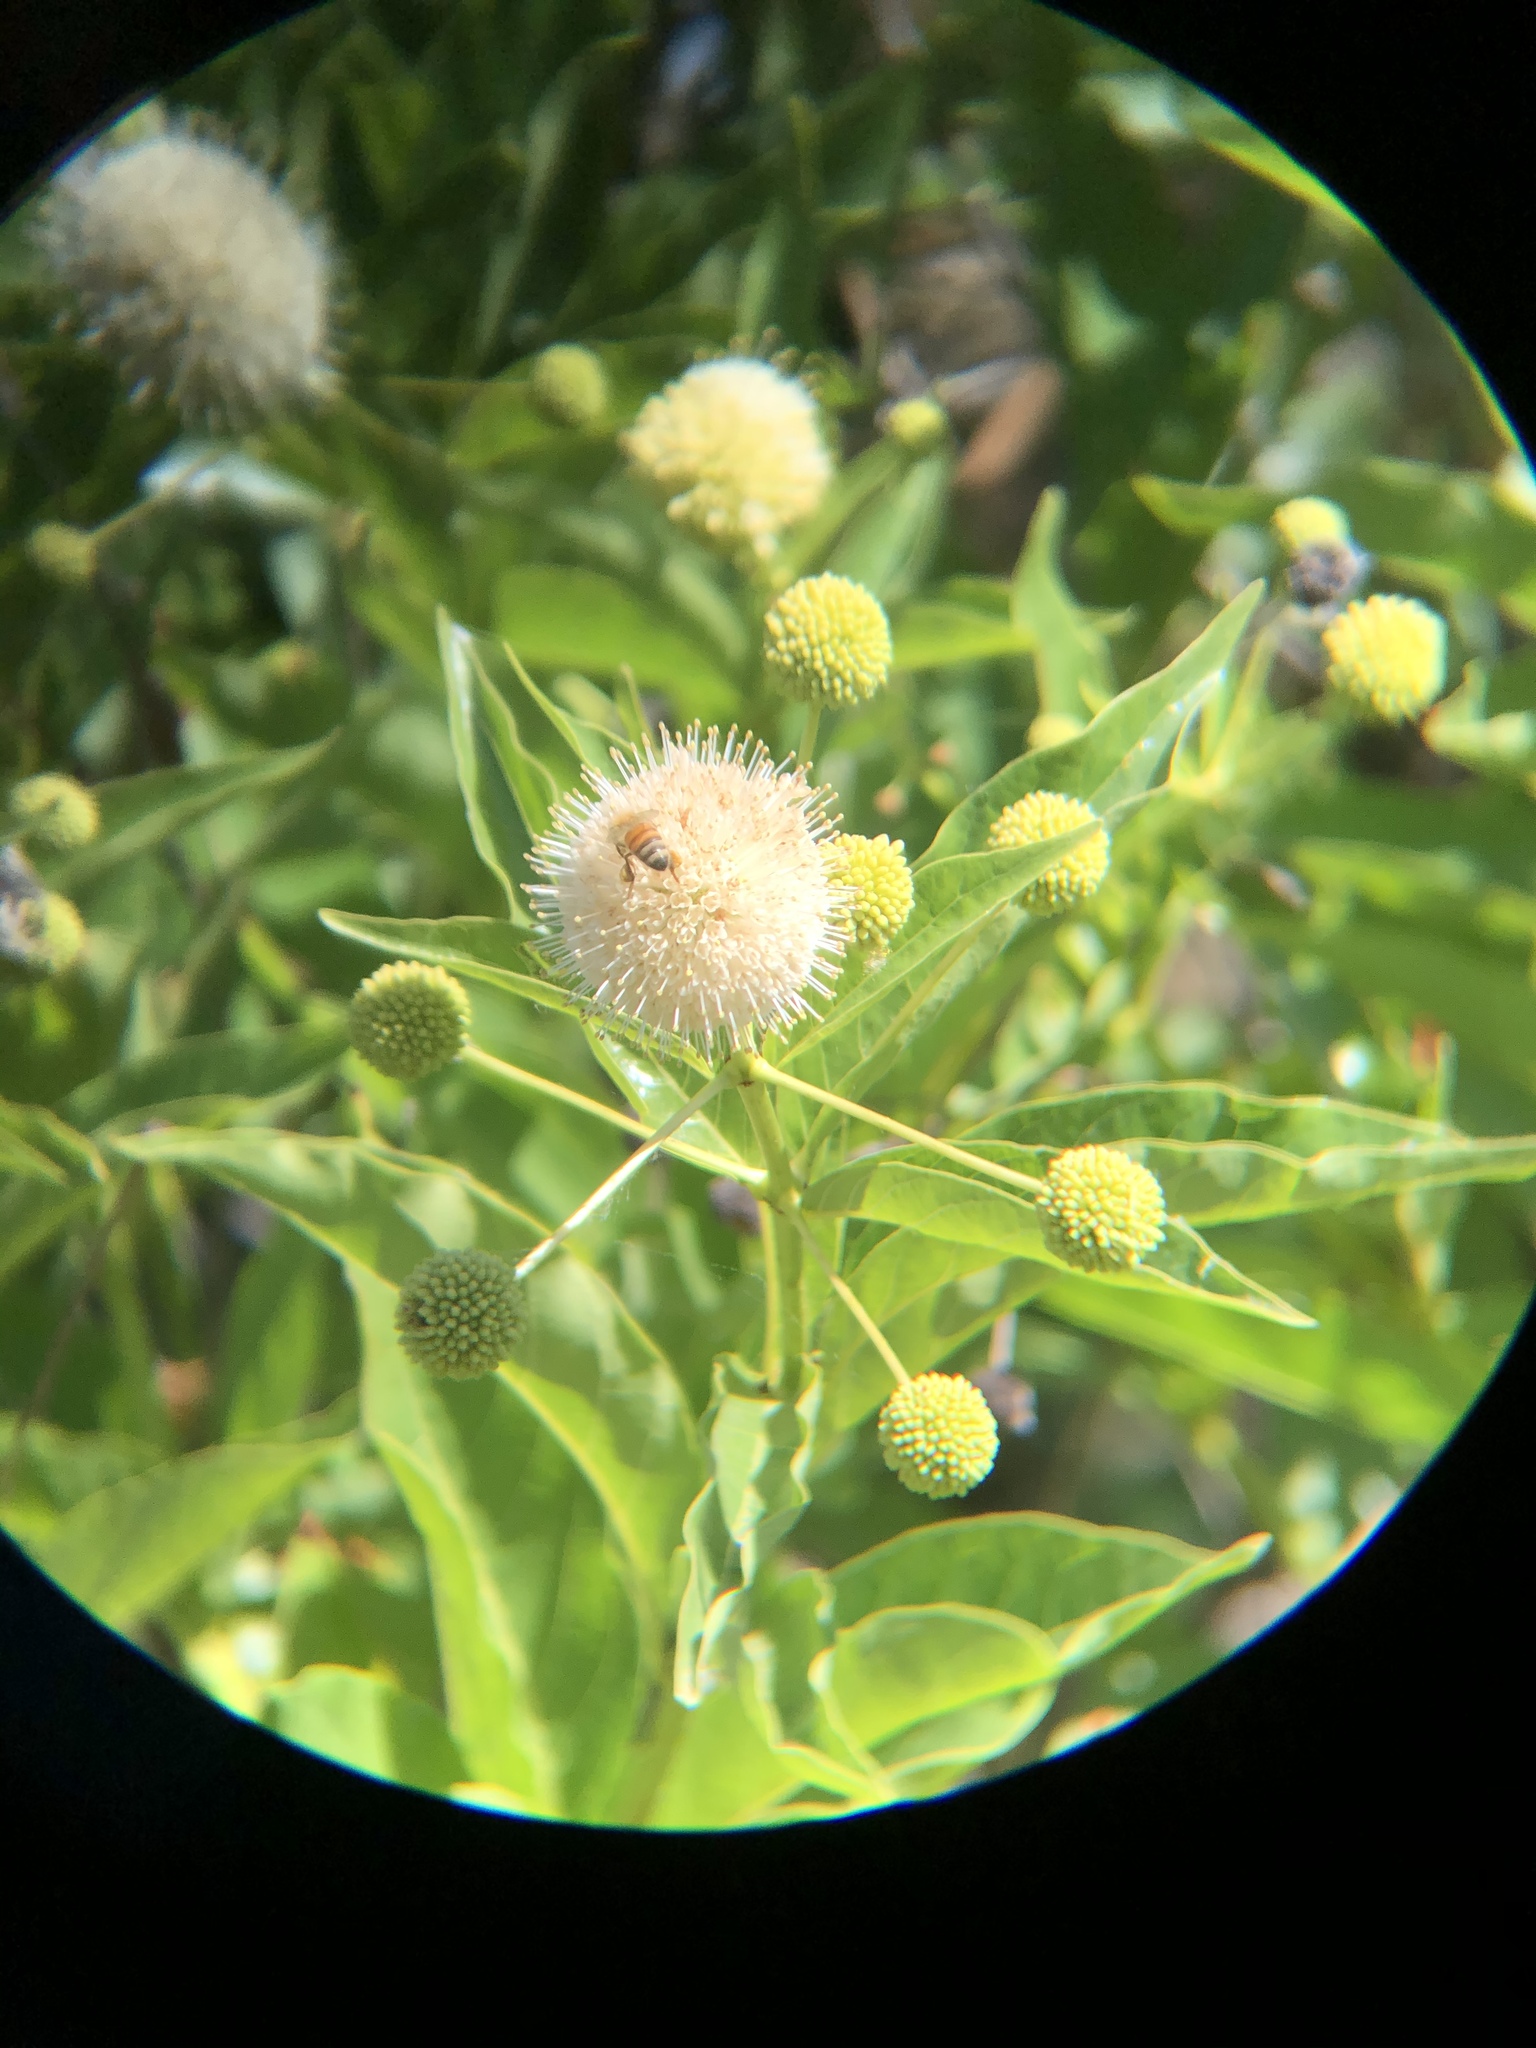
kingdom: Plantae
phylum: Tracheophyta
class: Magnoliopsida
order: Gentianales
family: Rubiaceae
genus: Cephalanthus
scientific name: Cephalanthus occidentalis
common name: Button-willow
